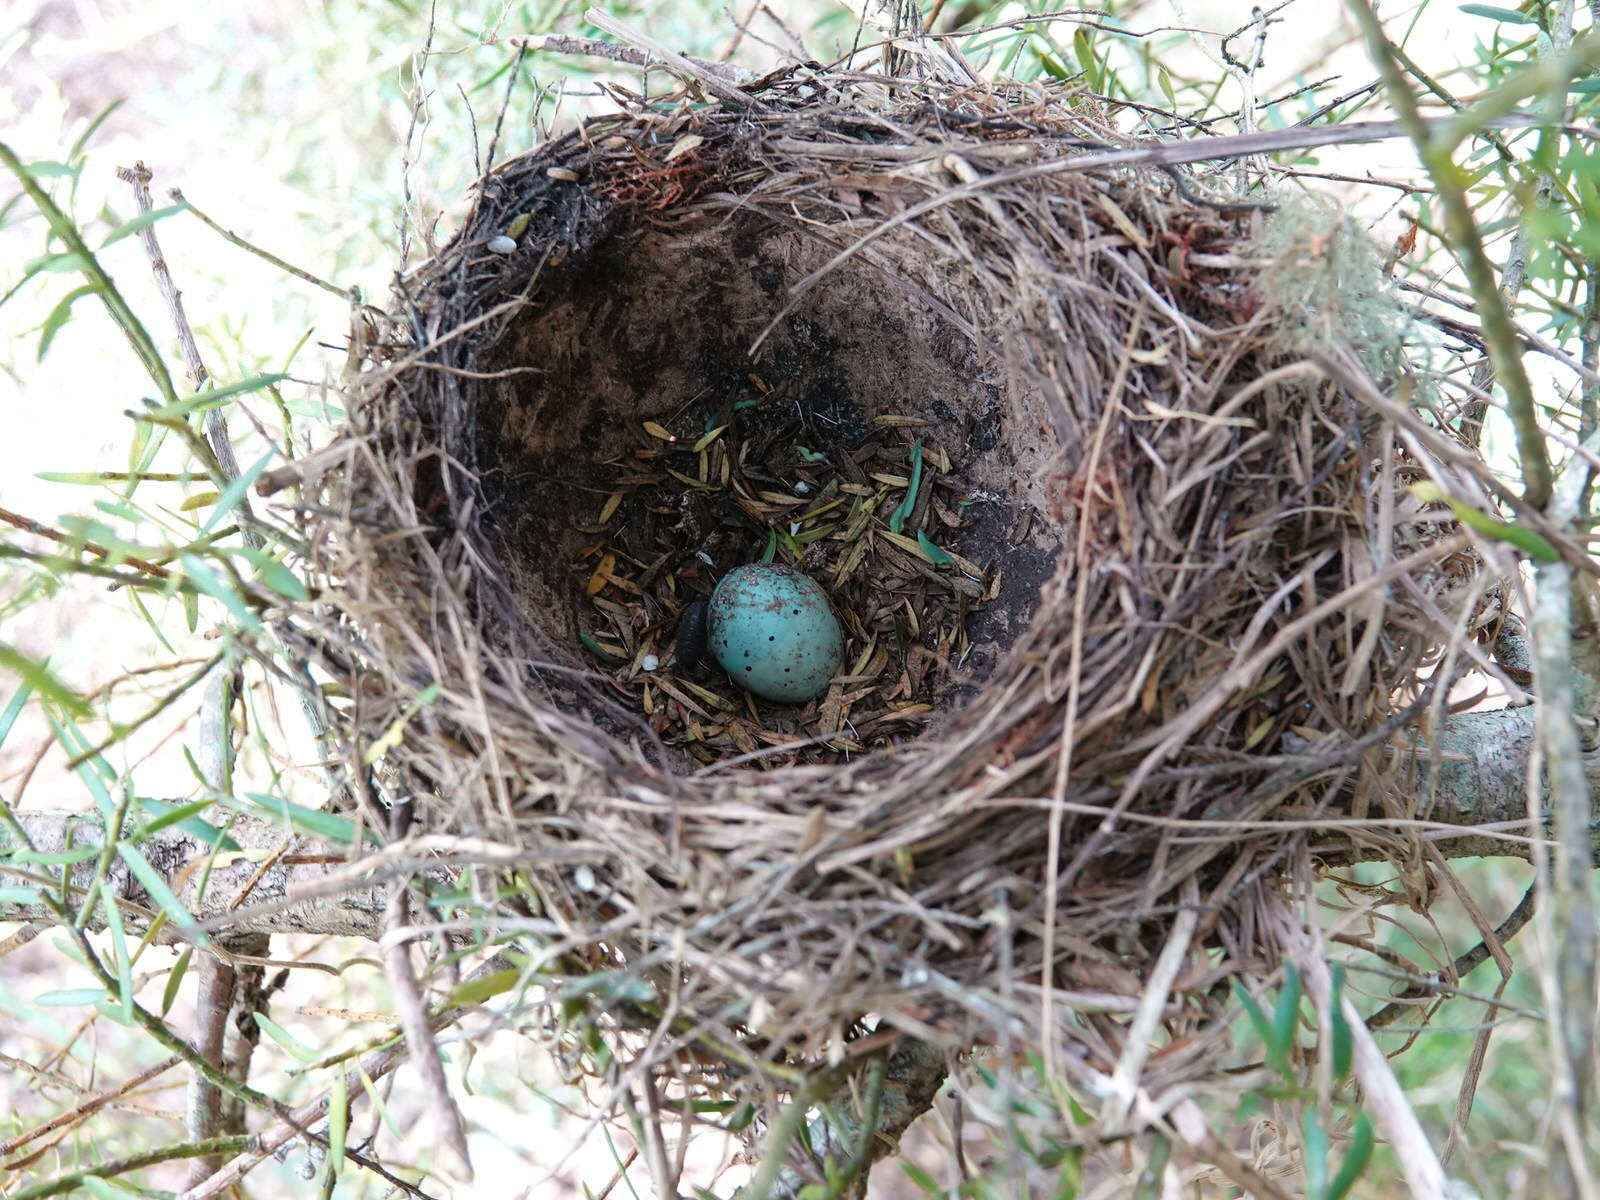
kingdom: Animalia
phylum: Chordata
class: Aves
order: Passeriformes
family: Turdidae
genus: Turdus
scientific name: Turdus philomelos
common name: Song thrush
